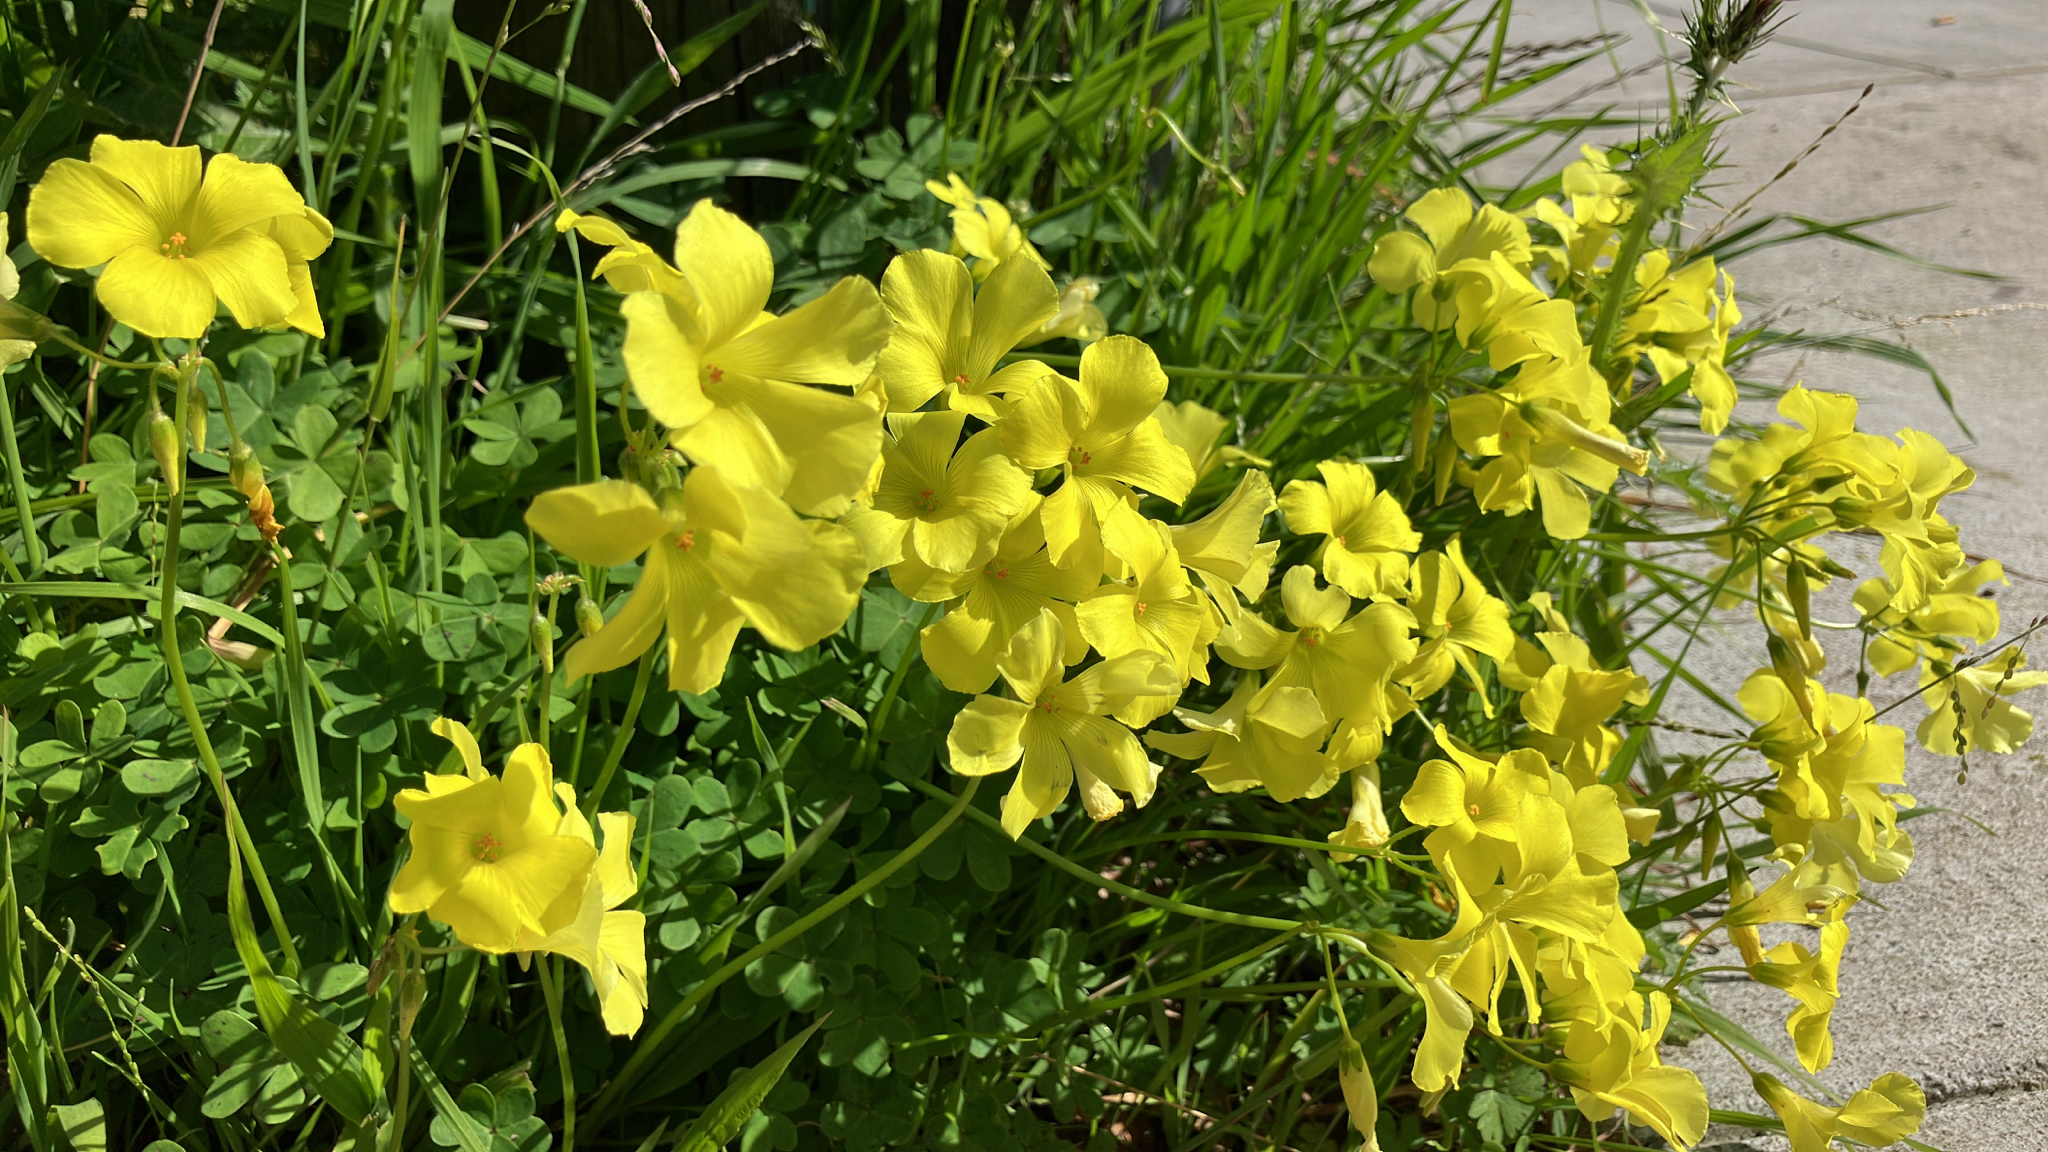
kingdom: Plantae
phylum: Tracheophyta
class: Magnoliopsida
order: Oxalidales
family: Oxalidaceae
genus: Oxalis
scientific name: Oxalis pes-caprae
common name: Bermuda-buttercup
